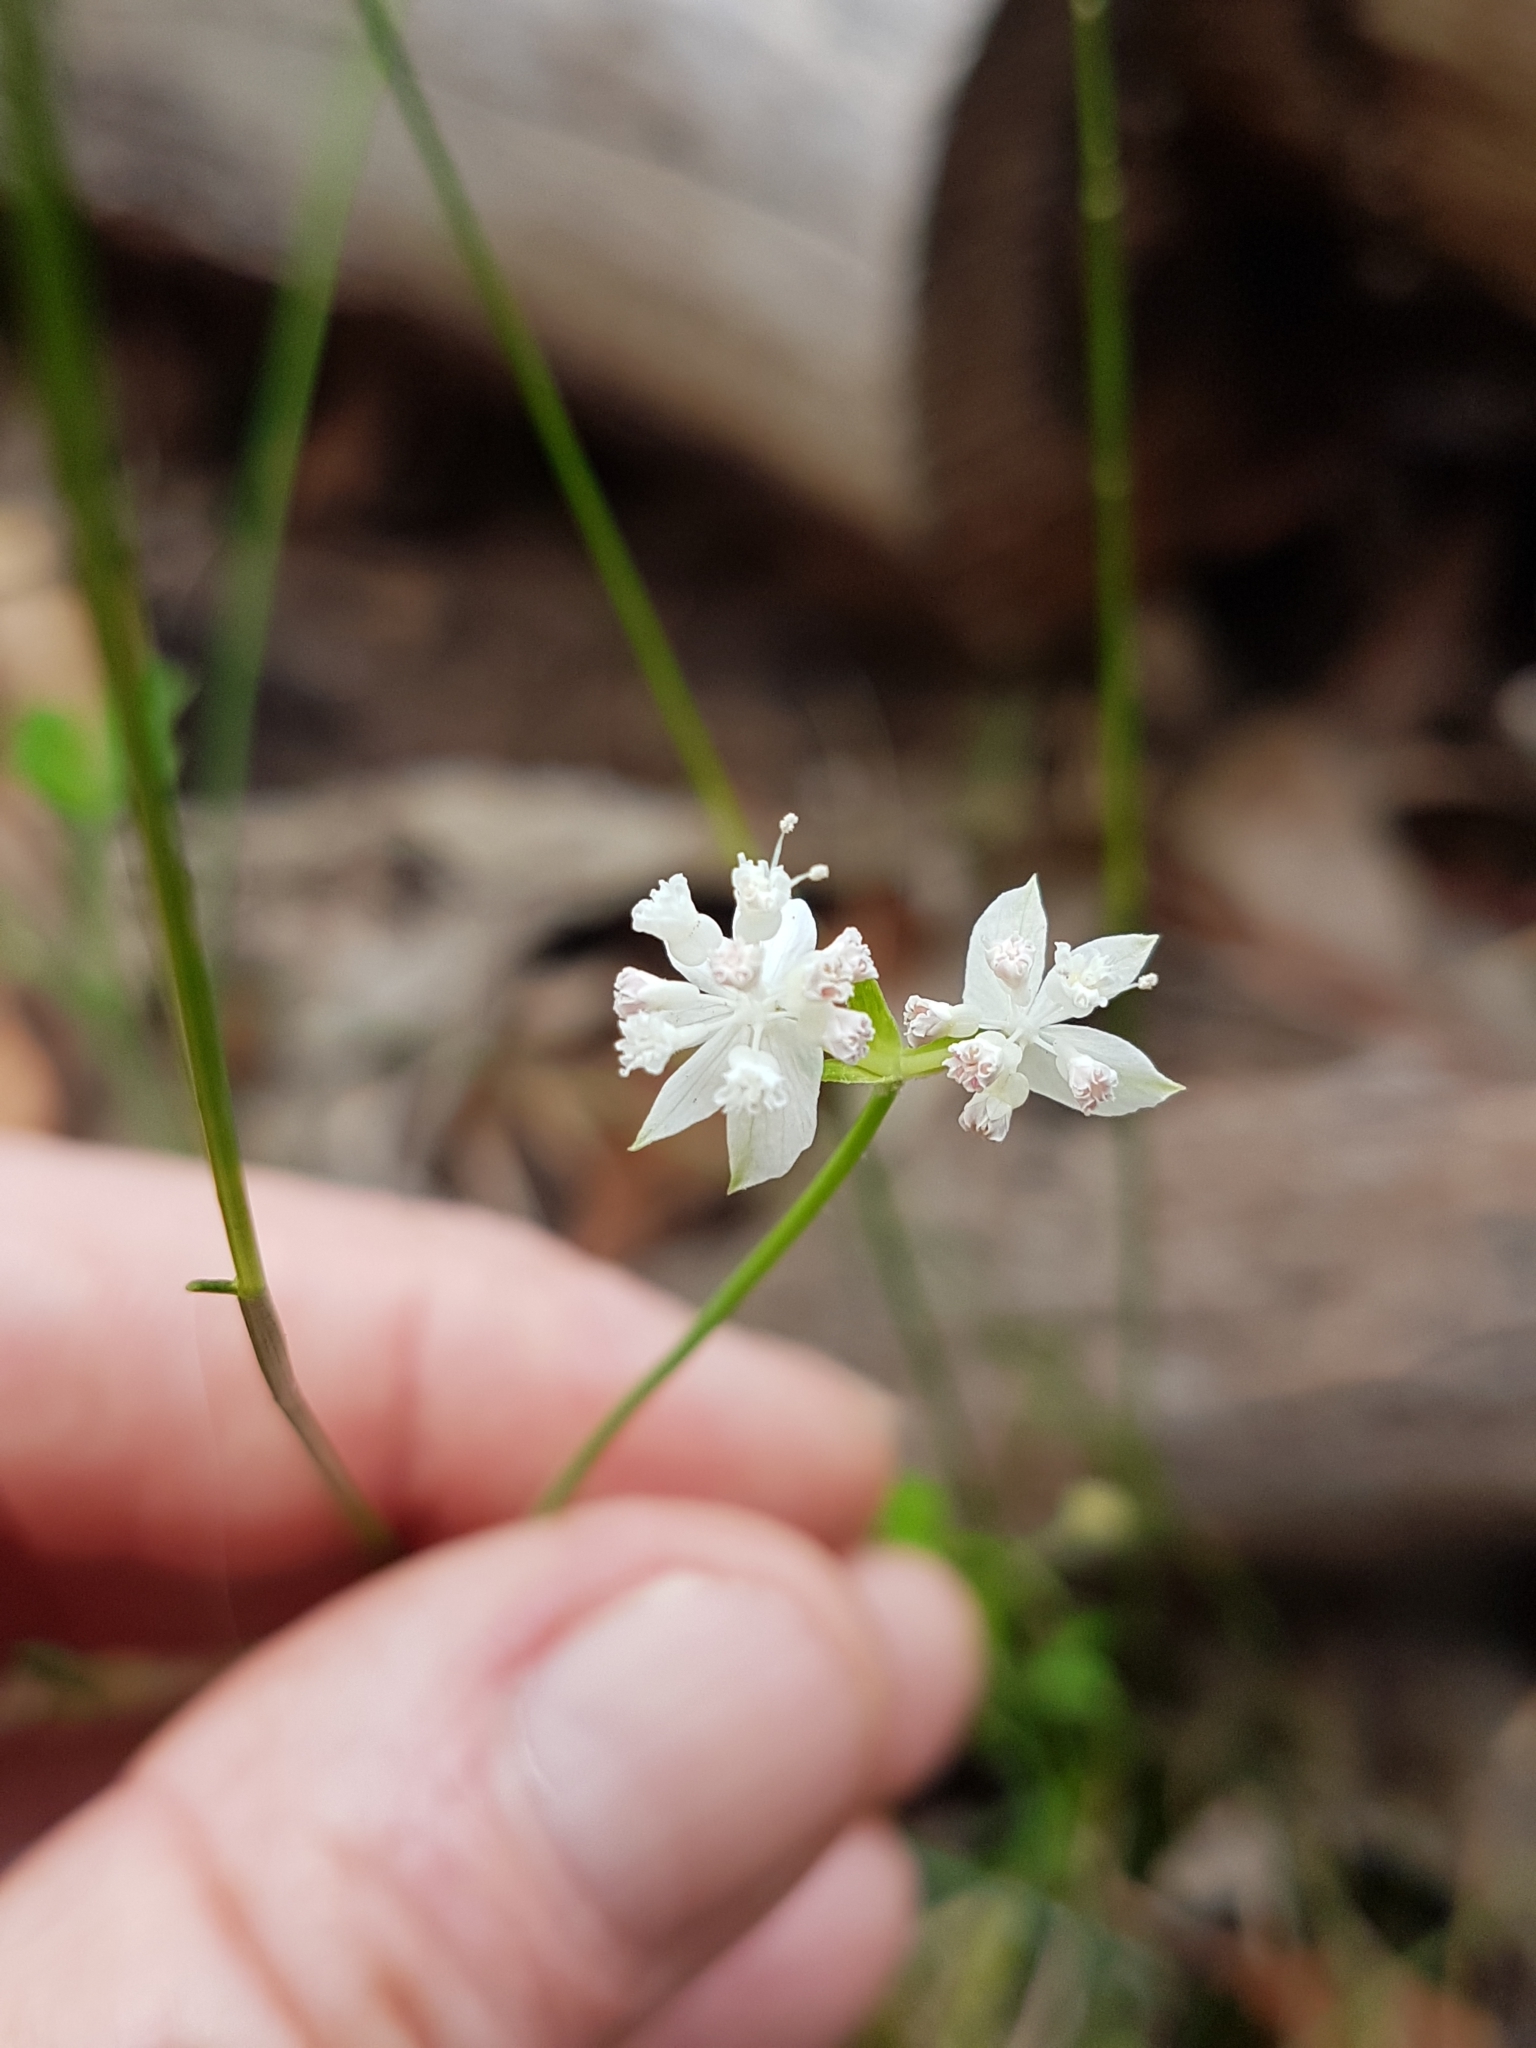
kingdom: Plantae
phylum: Tracheophyta
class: Magnoliopsida
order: Apiales
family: Apiaceae
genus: Xanthosia
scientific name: Xanthosia atkinsoniana
